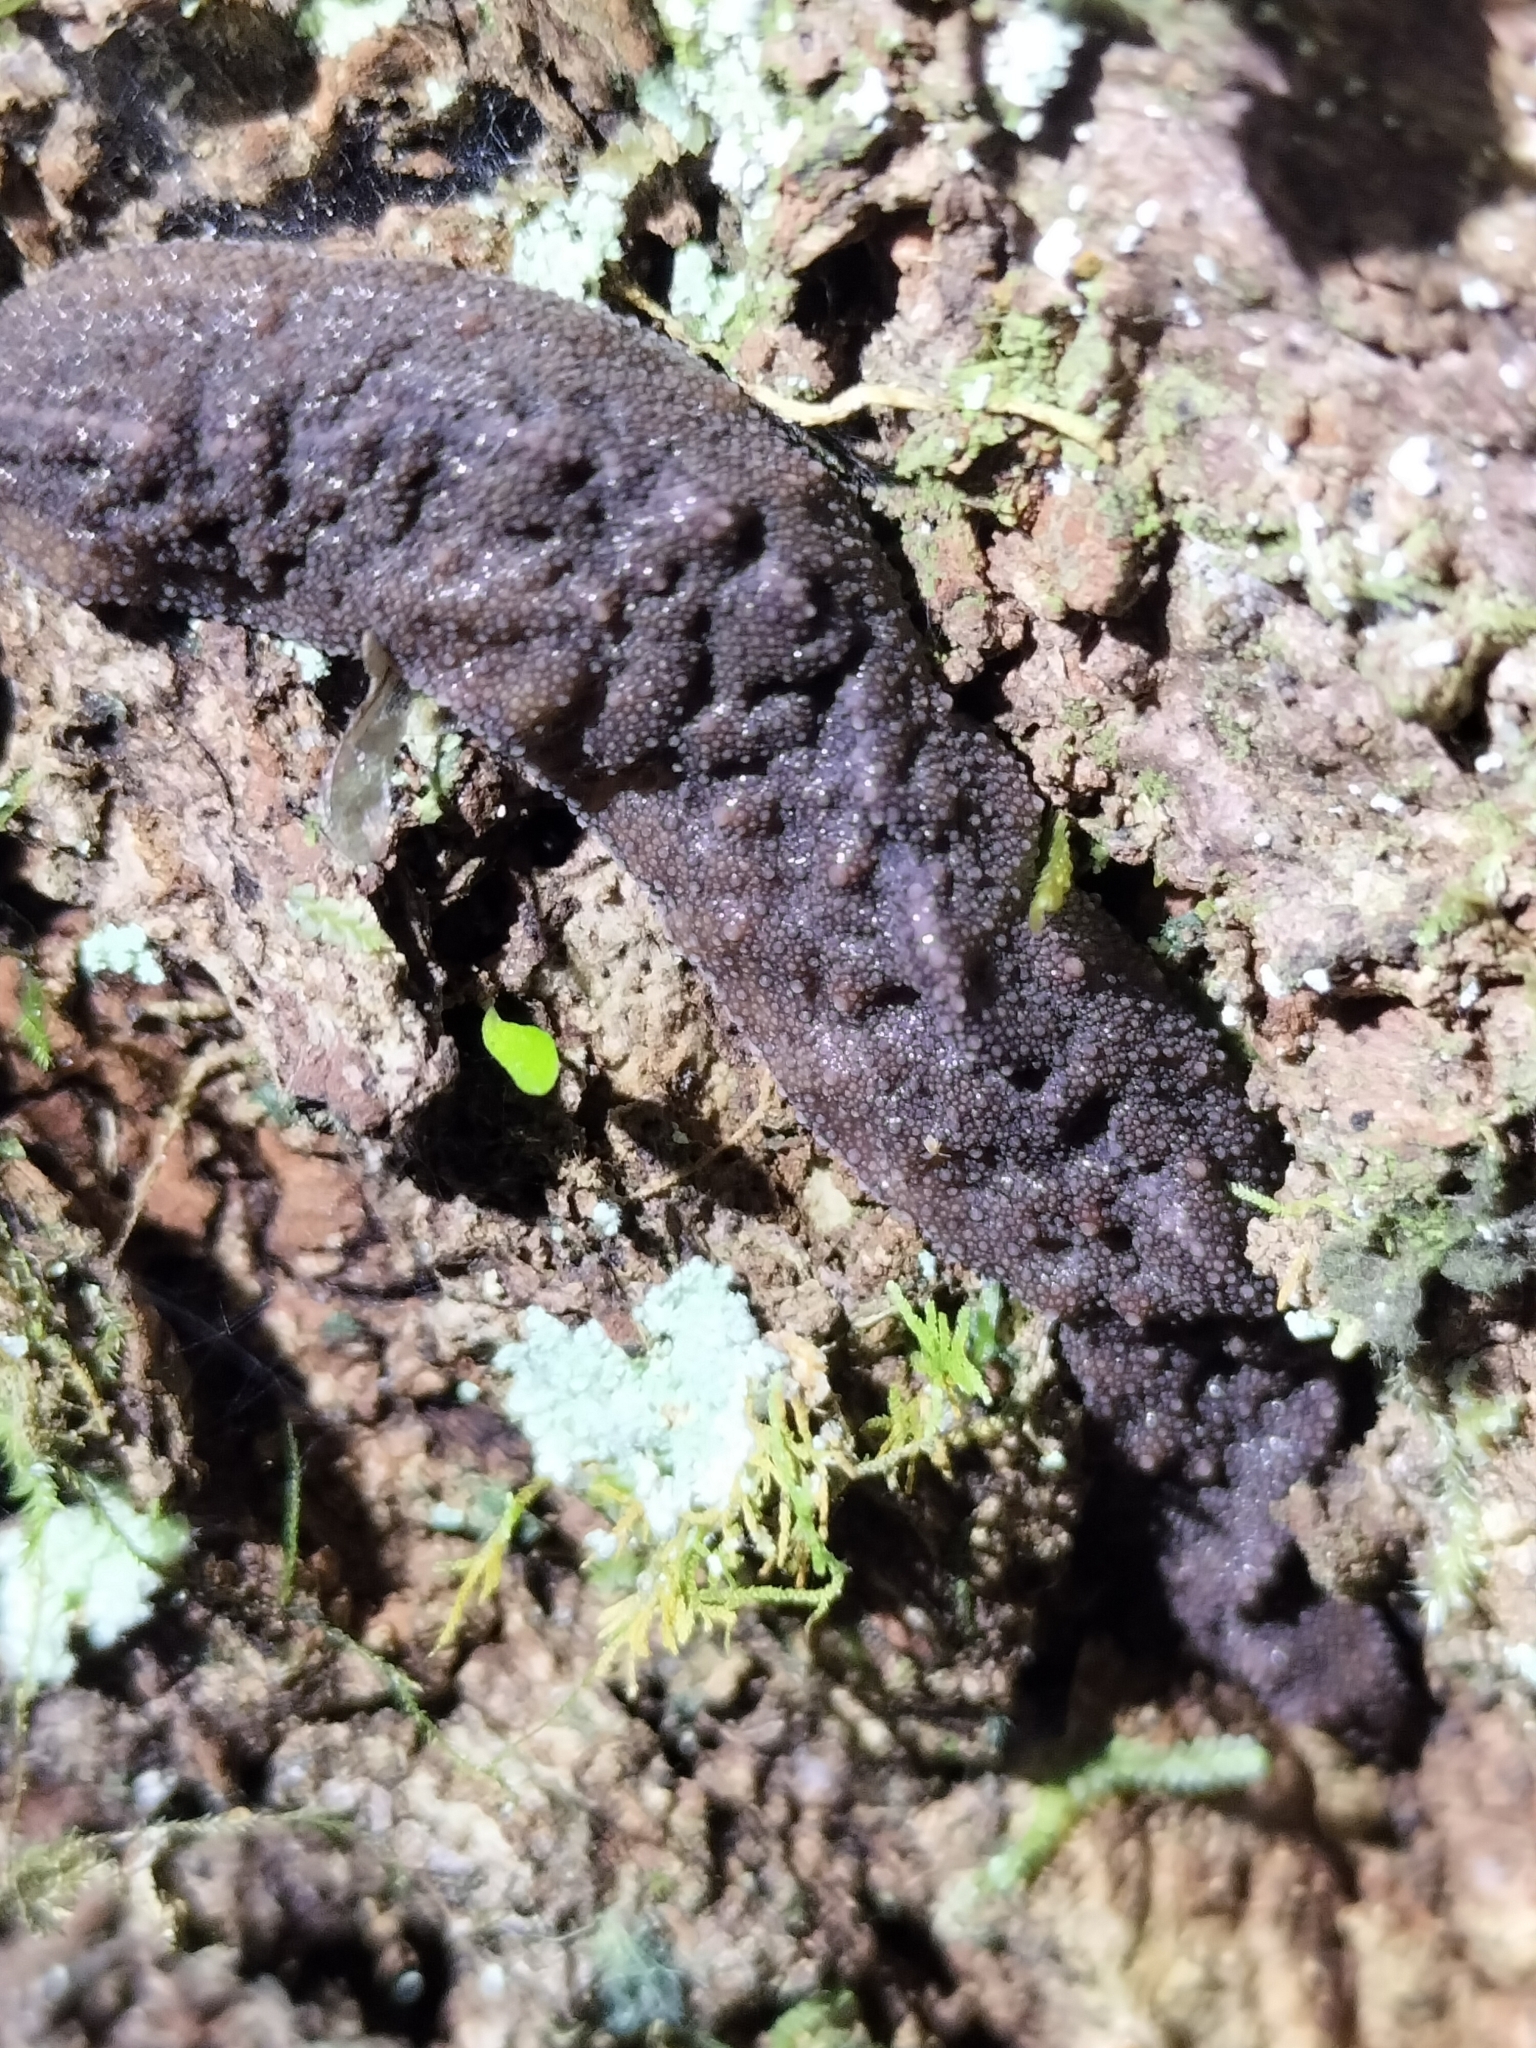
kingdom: Animalia
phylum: Mollusca
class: Gastropoda
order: Systellommatophora
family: Rathouisiidae
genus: Atopos
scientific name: Atopos australis
